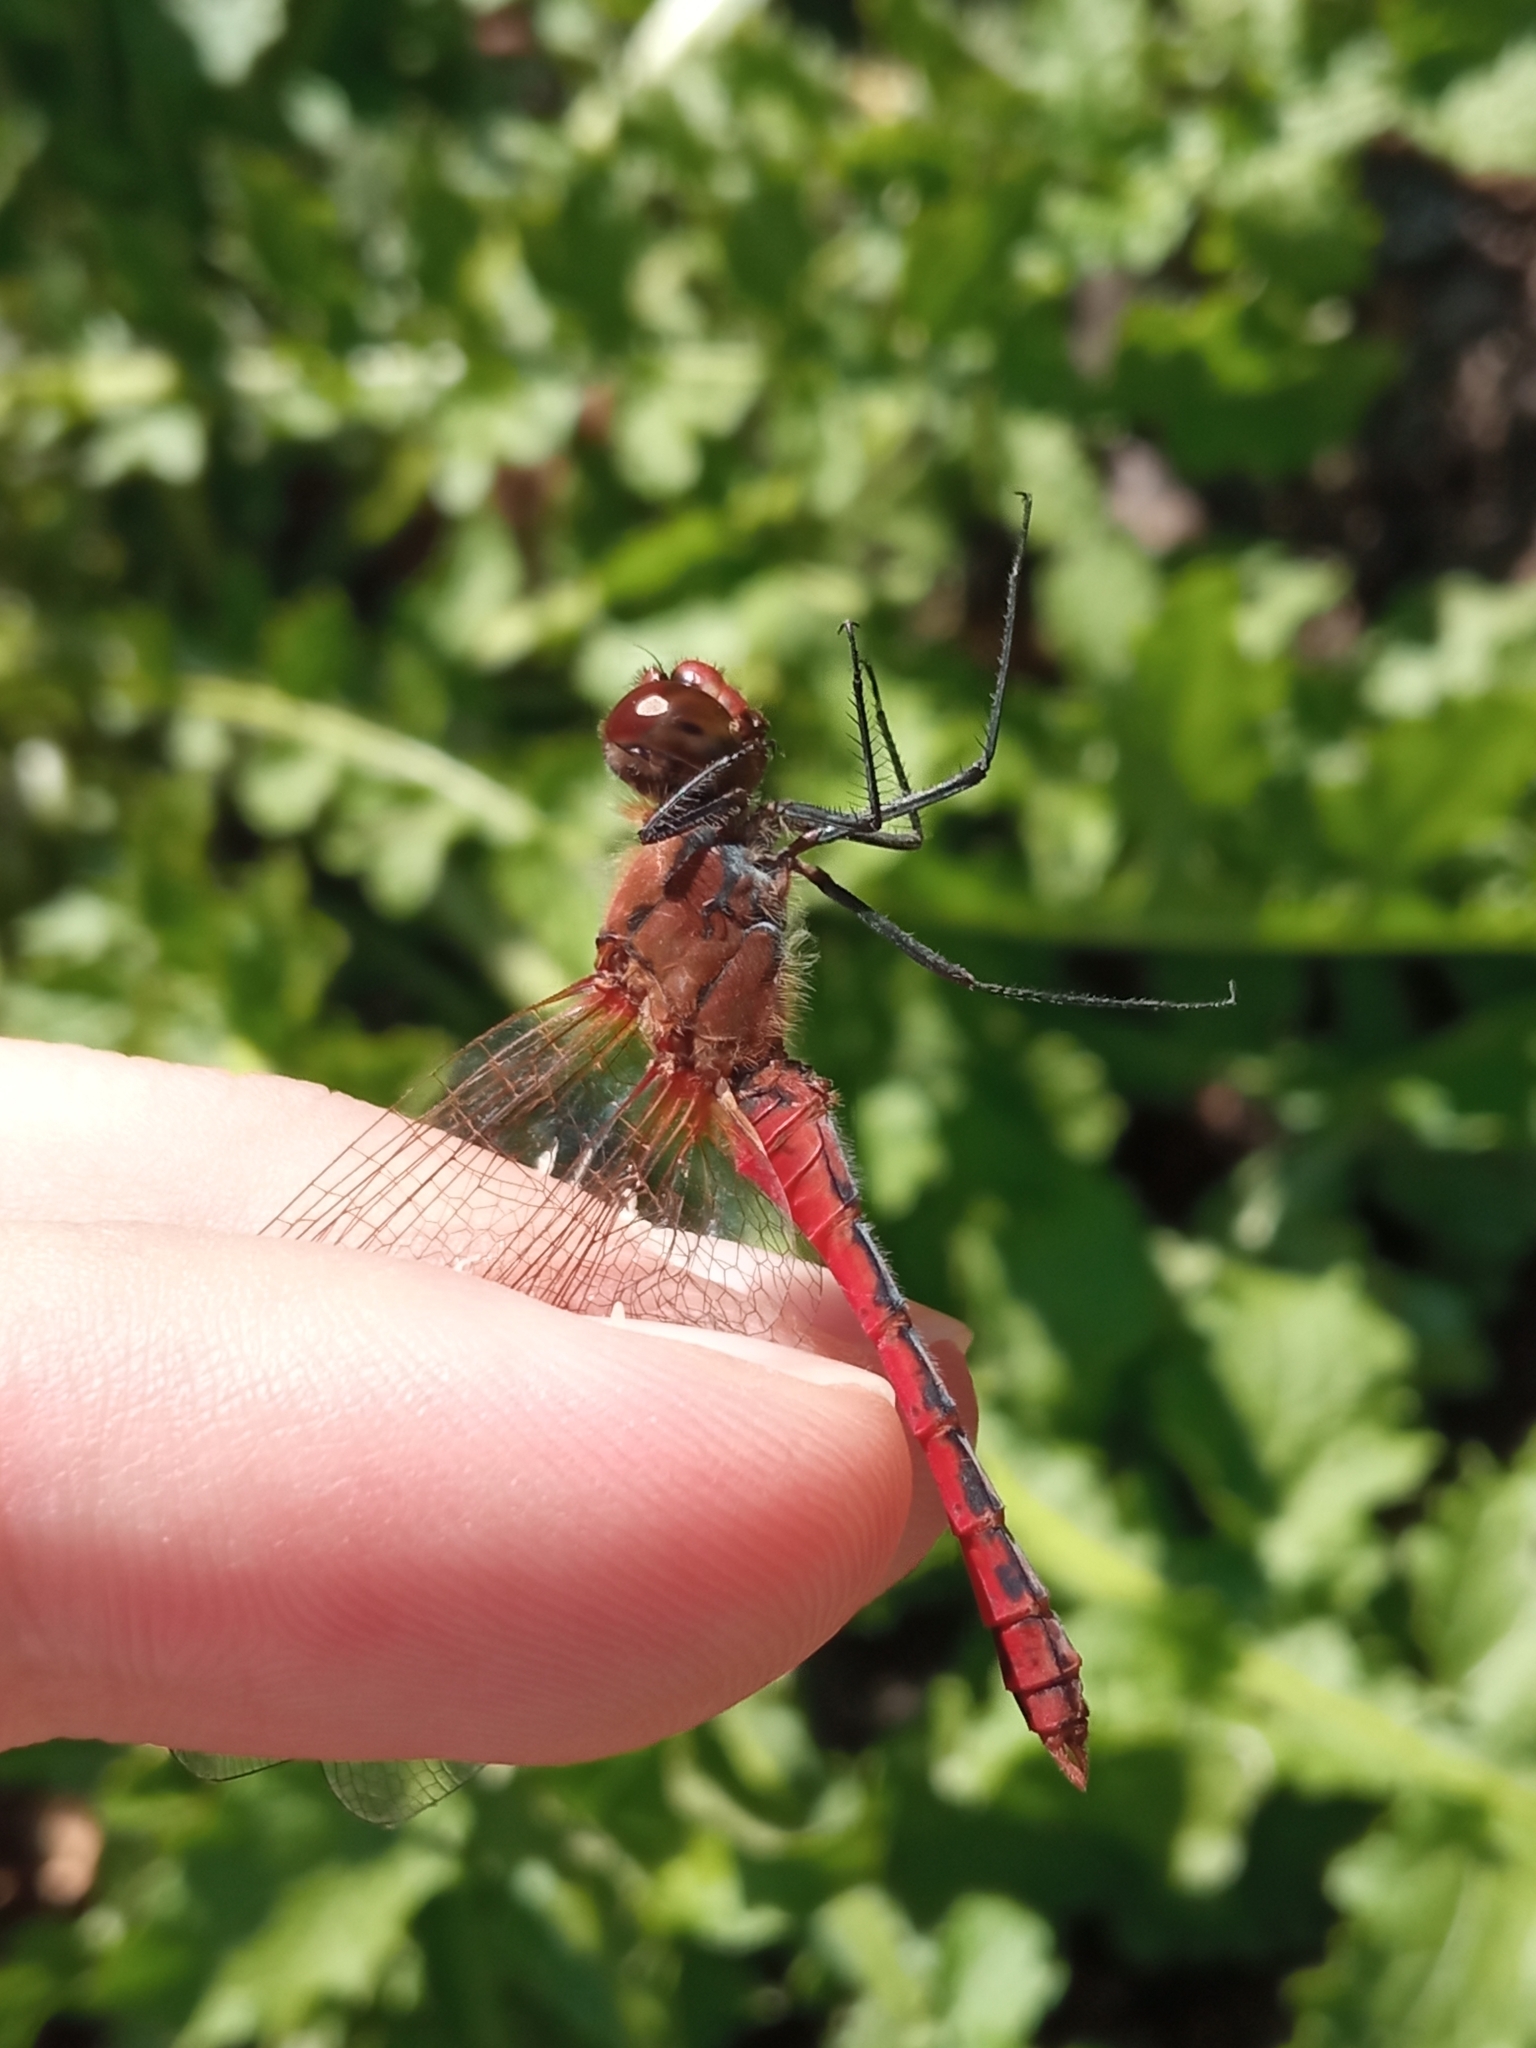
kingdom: Animalia
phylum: Arthropoda
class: Insecta
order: Odonata
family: Libellulidae
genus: Sympetrum
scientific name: Sympetrum sanguineum
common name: Ruddy darter
